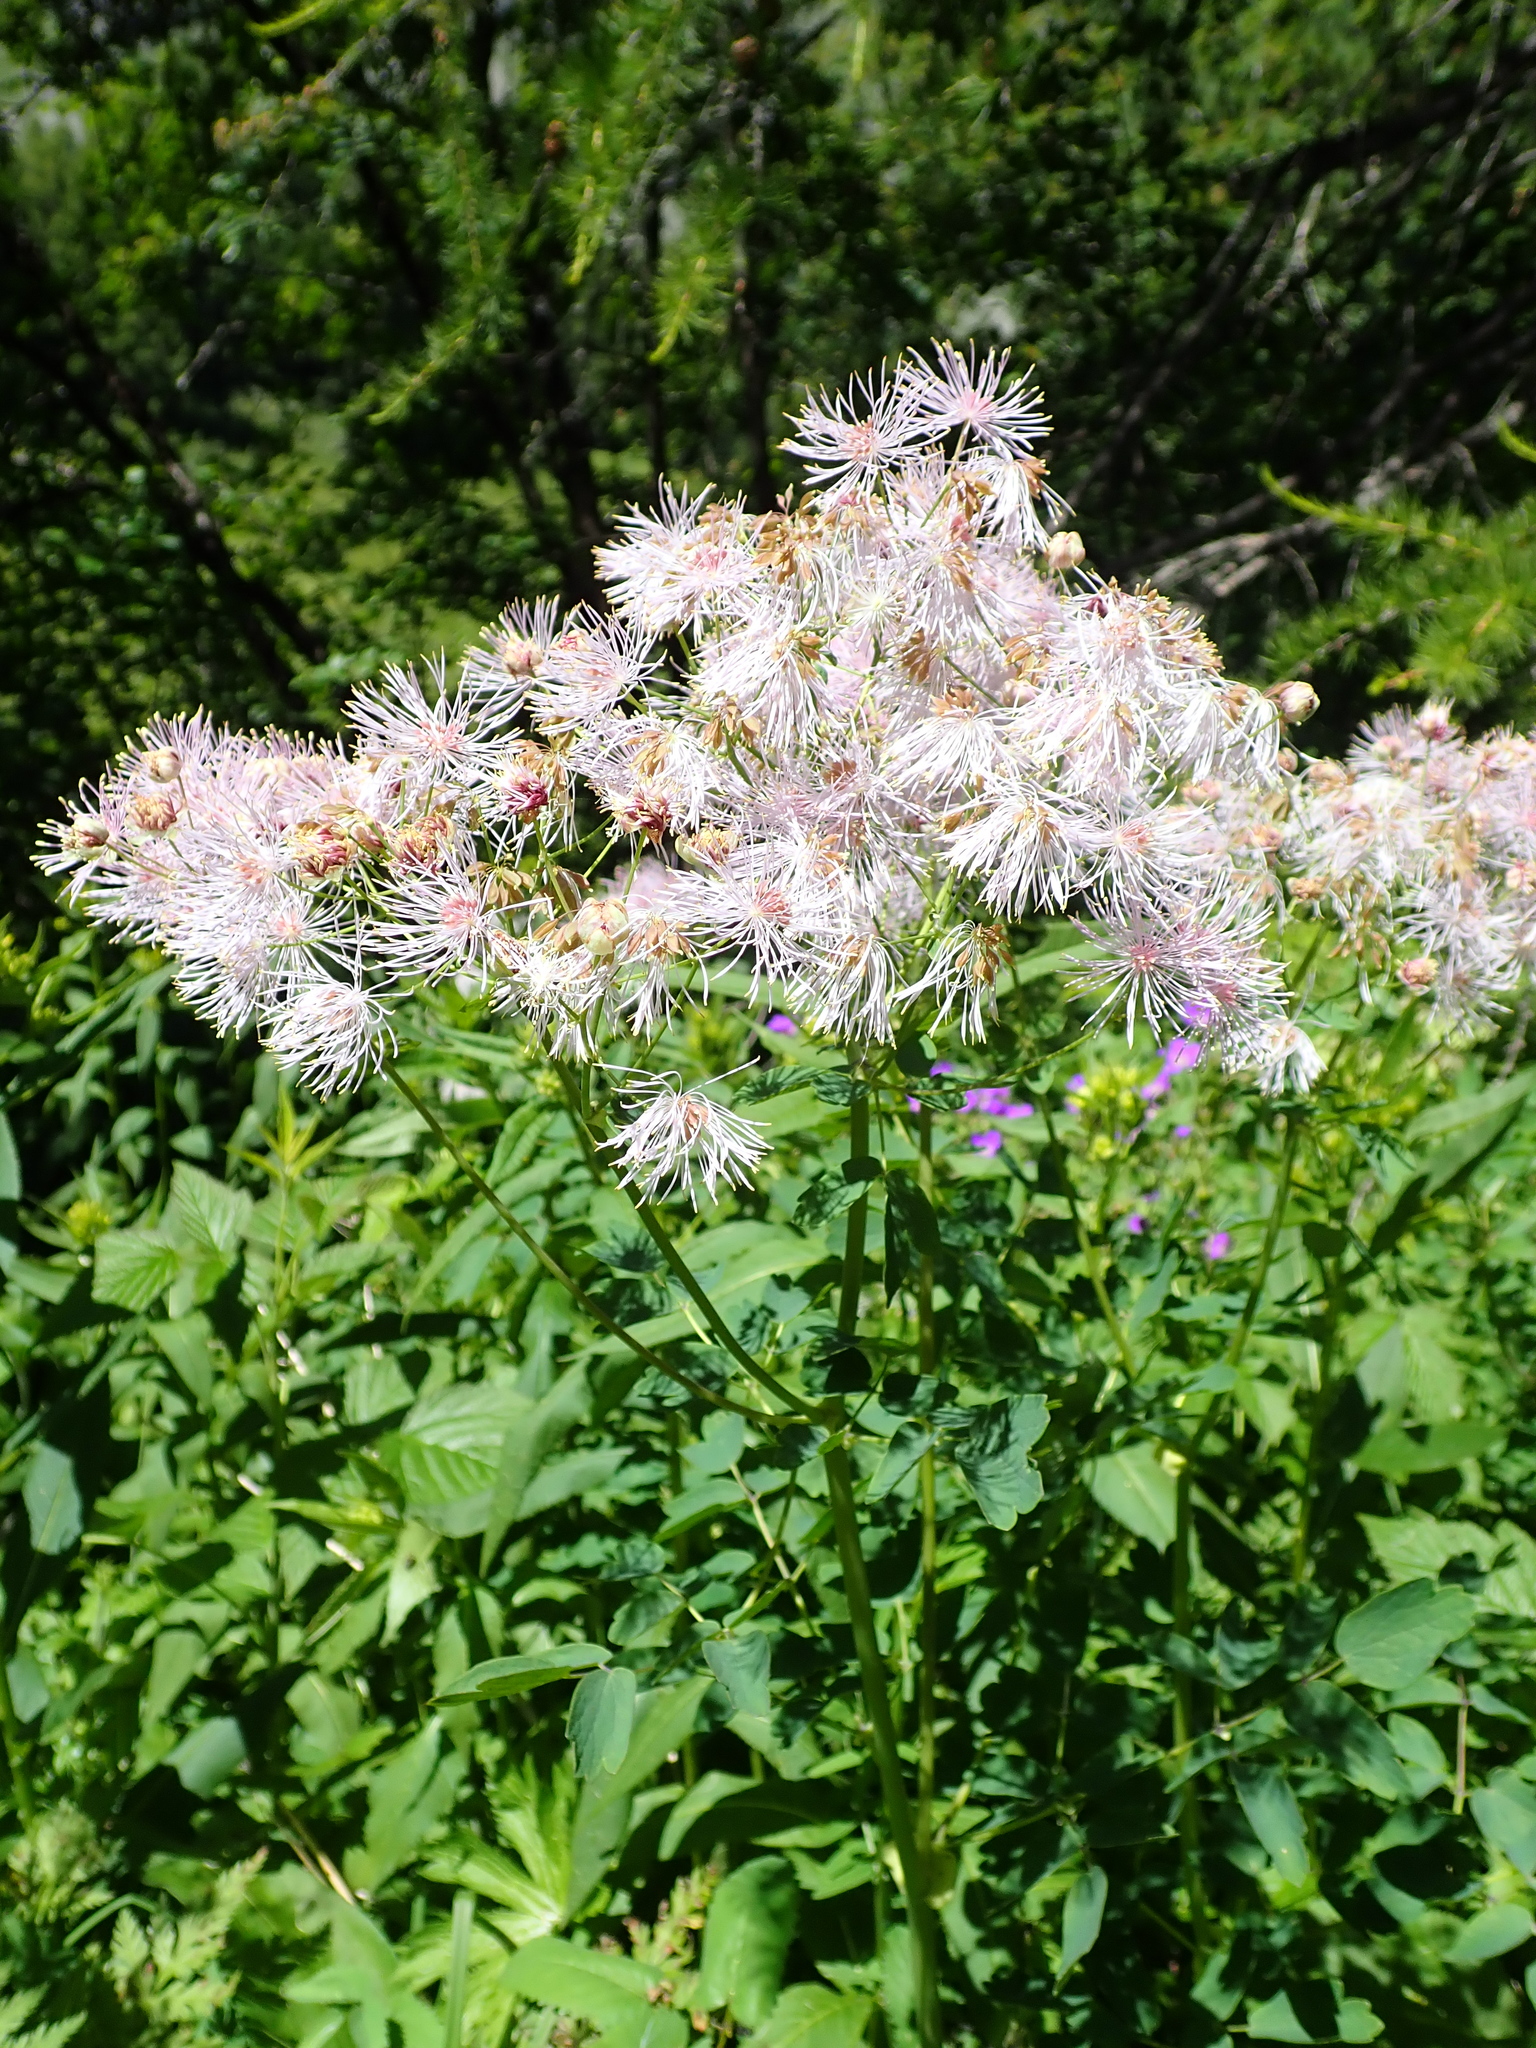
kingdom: Plantae
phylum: Tracheophyta
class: Magnoliopsida
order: Ranunculales
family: Ranunculaceae
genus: Thalictrum
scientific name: Thalictrum aquilegiifolium
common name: French meadow-rue
